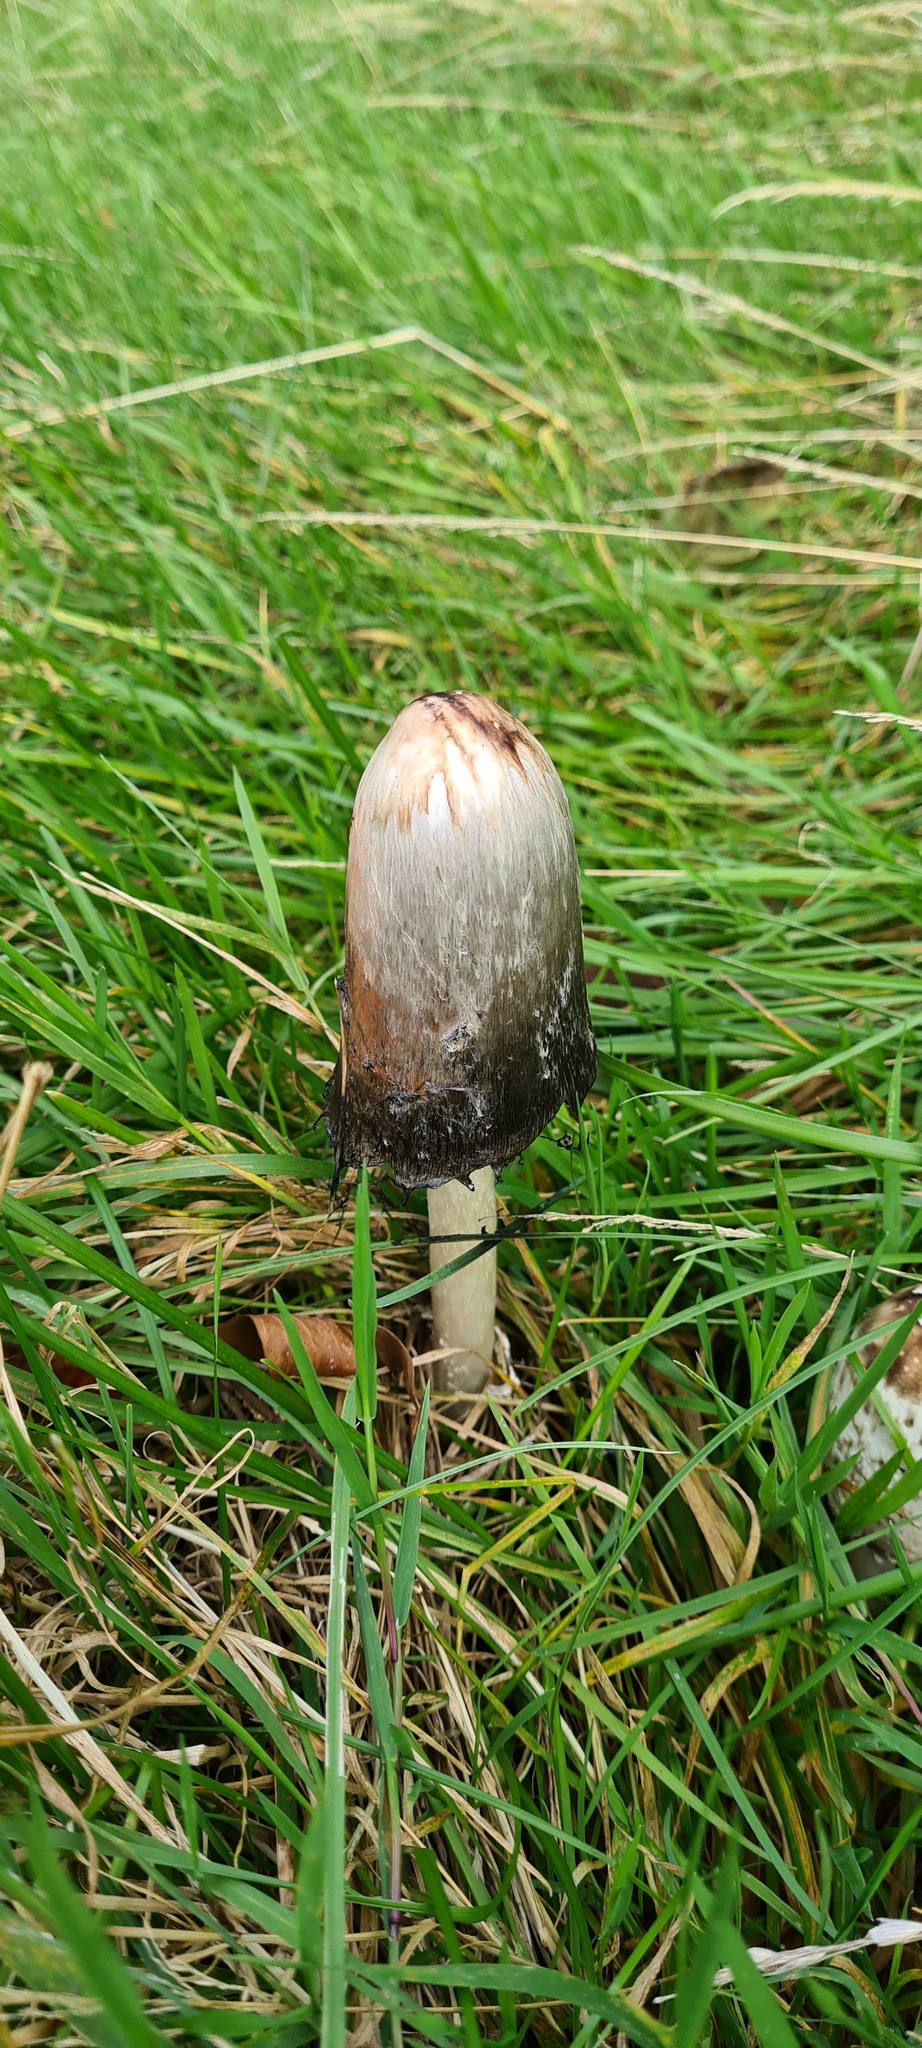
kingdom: Fungi
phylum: Basidiomycota
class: Agaricomycetes
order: Agaricales
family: Agaricaceae
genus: Coprinus
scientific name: Coprinus comatus
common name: Lawyer's wig
